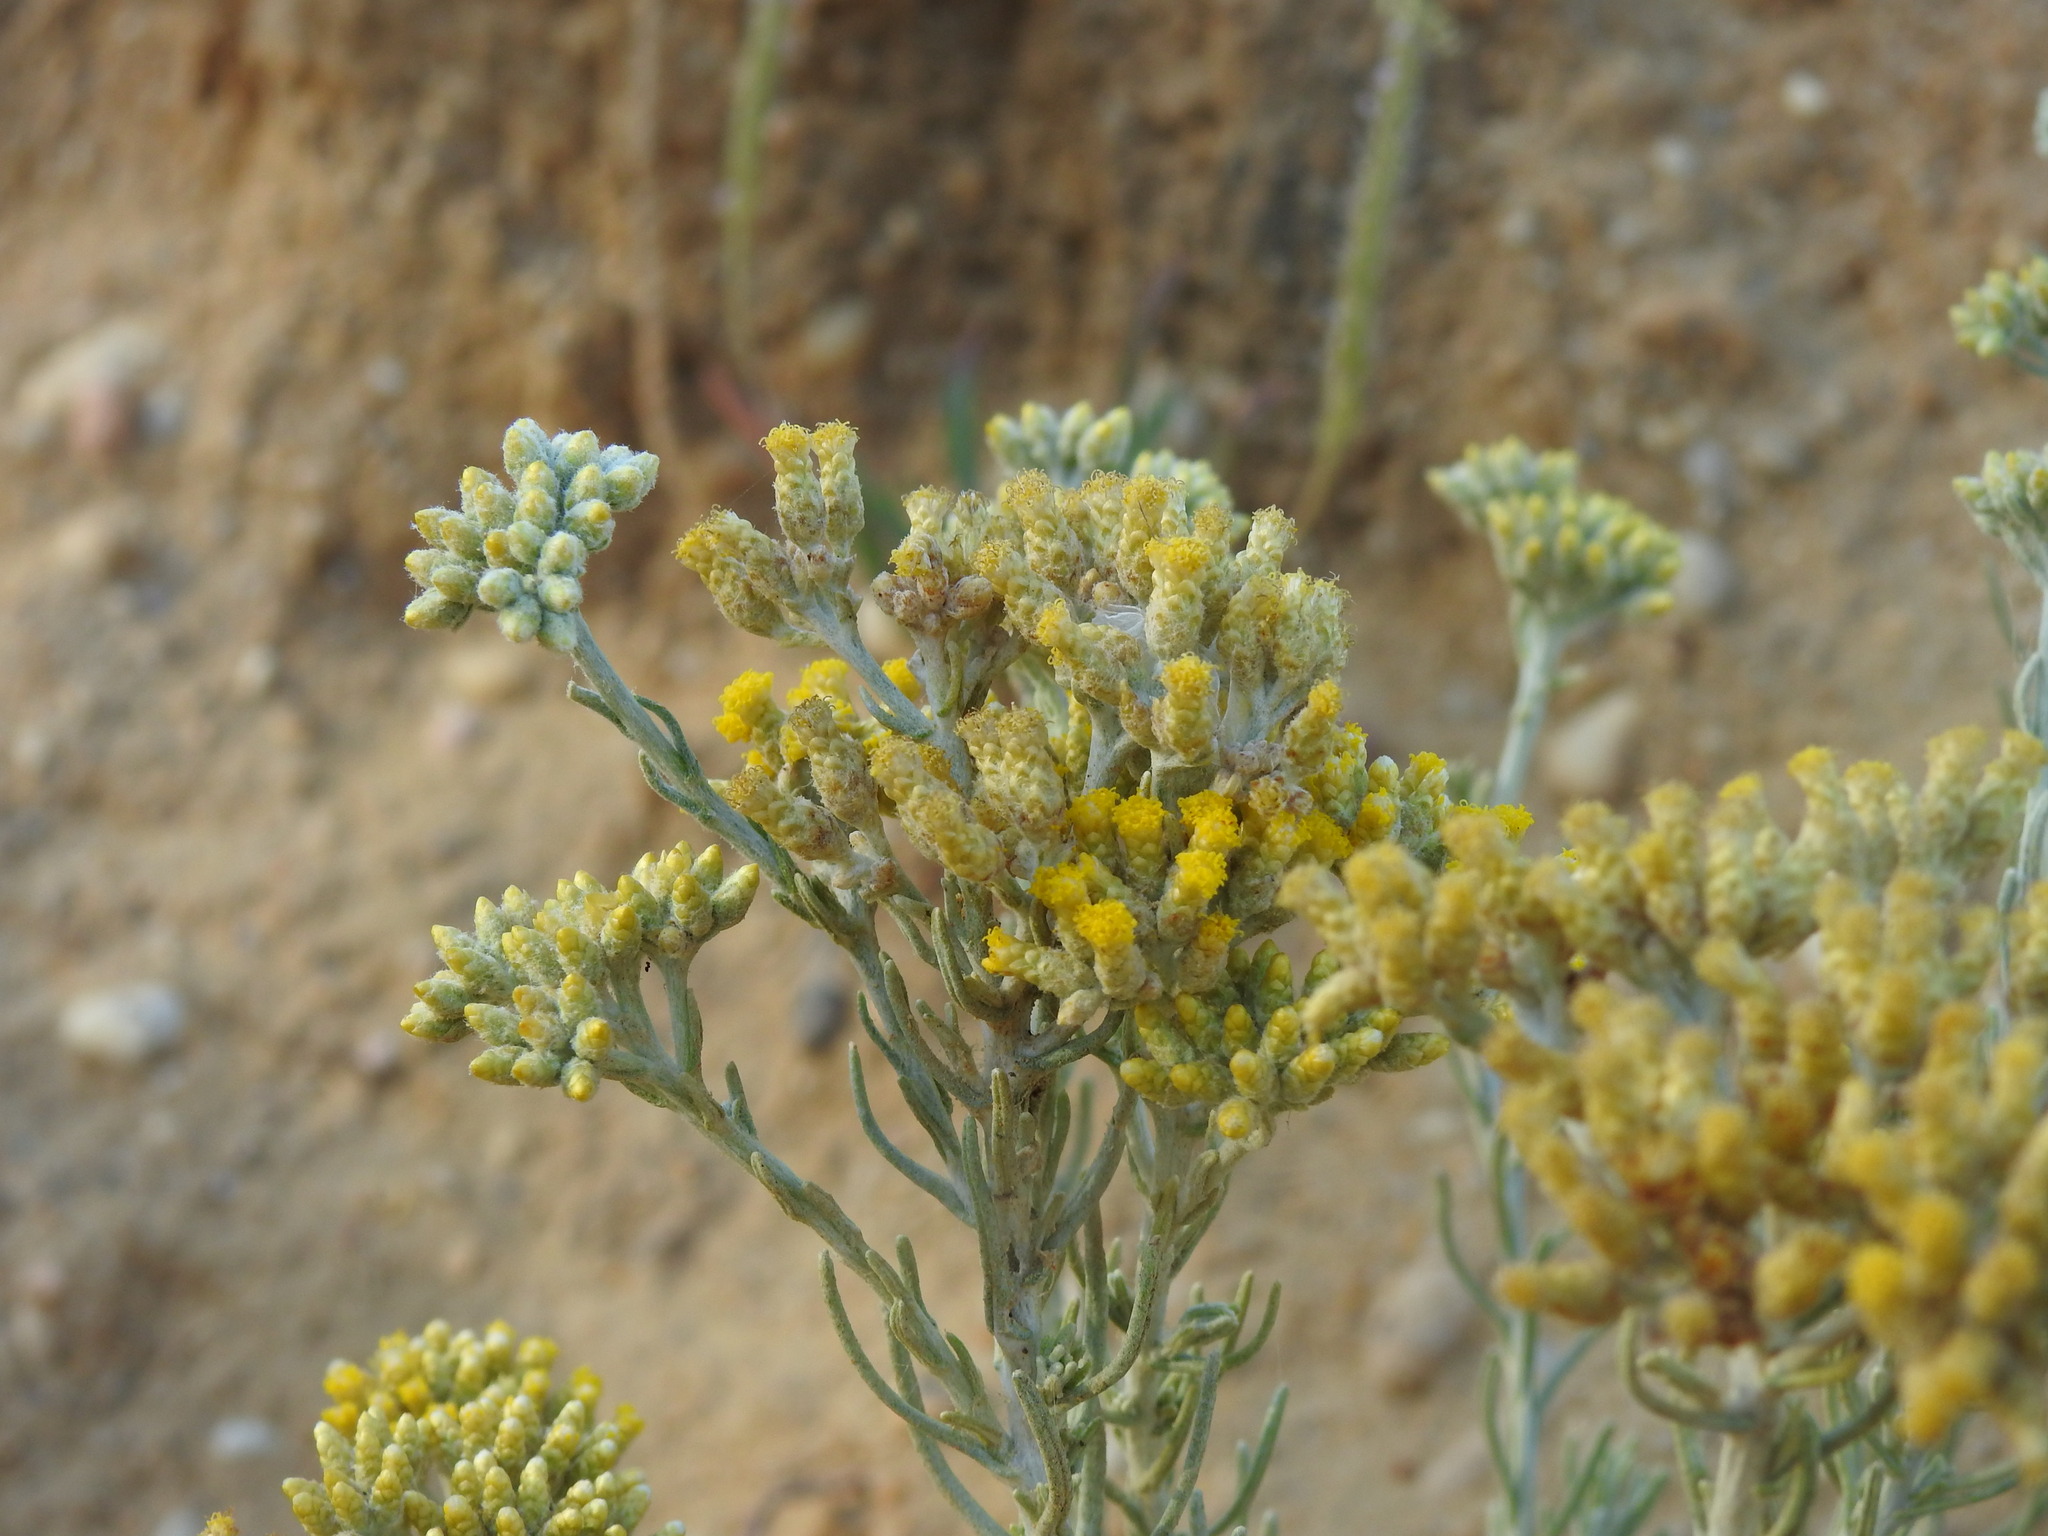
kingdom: Plantae
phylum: Tracheophyta
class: Magnoliopsida
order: Asterales
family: Asteraceae
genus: Helichrysum
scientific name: Helichrysum serotinum
